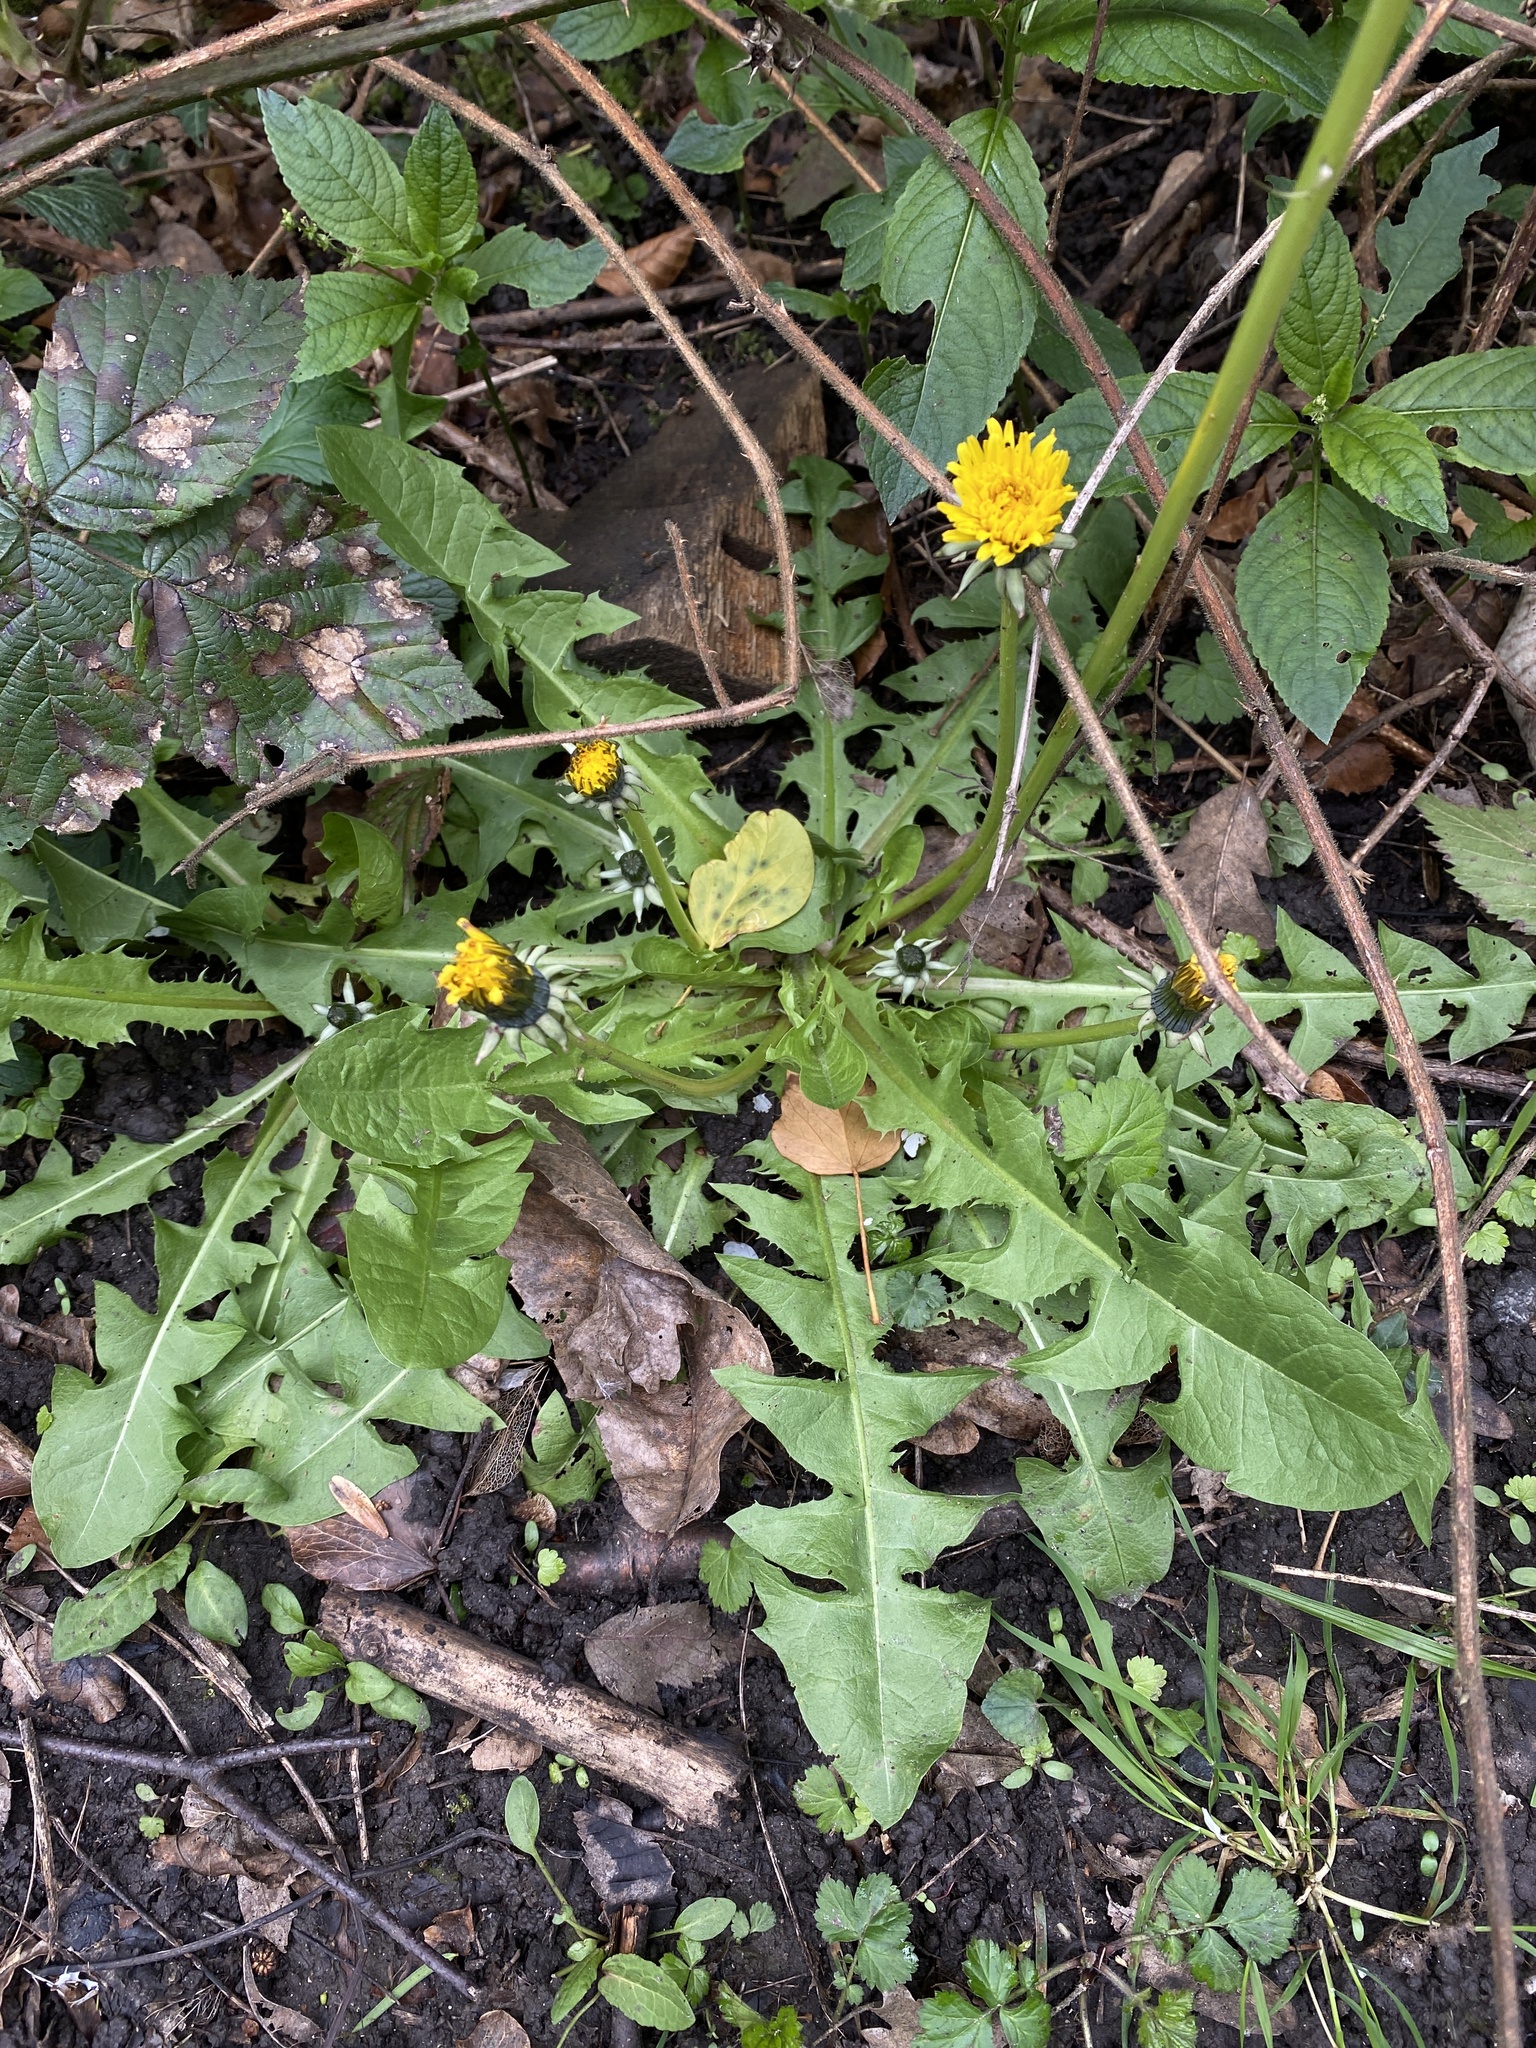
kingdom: Plantae
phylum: Tracheophyta
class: Magnoliopsida
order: Asterales
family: Asteraceae
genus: Taraxacum
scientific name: Taraxacum officinale
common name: Common dandelion
